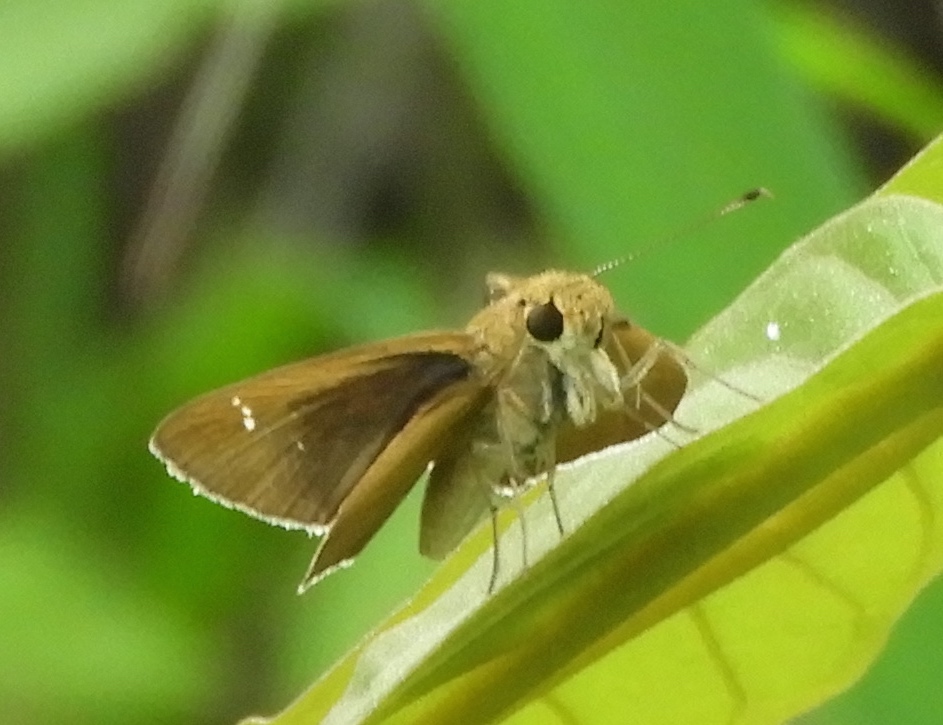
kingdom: Animalia
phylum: Arthropoda
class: Insecta
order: Lepidoptera
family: Hesperiidae
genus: Lerodea
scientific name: Lerodea eufala
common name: Eufala skipper
